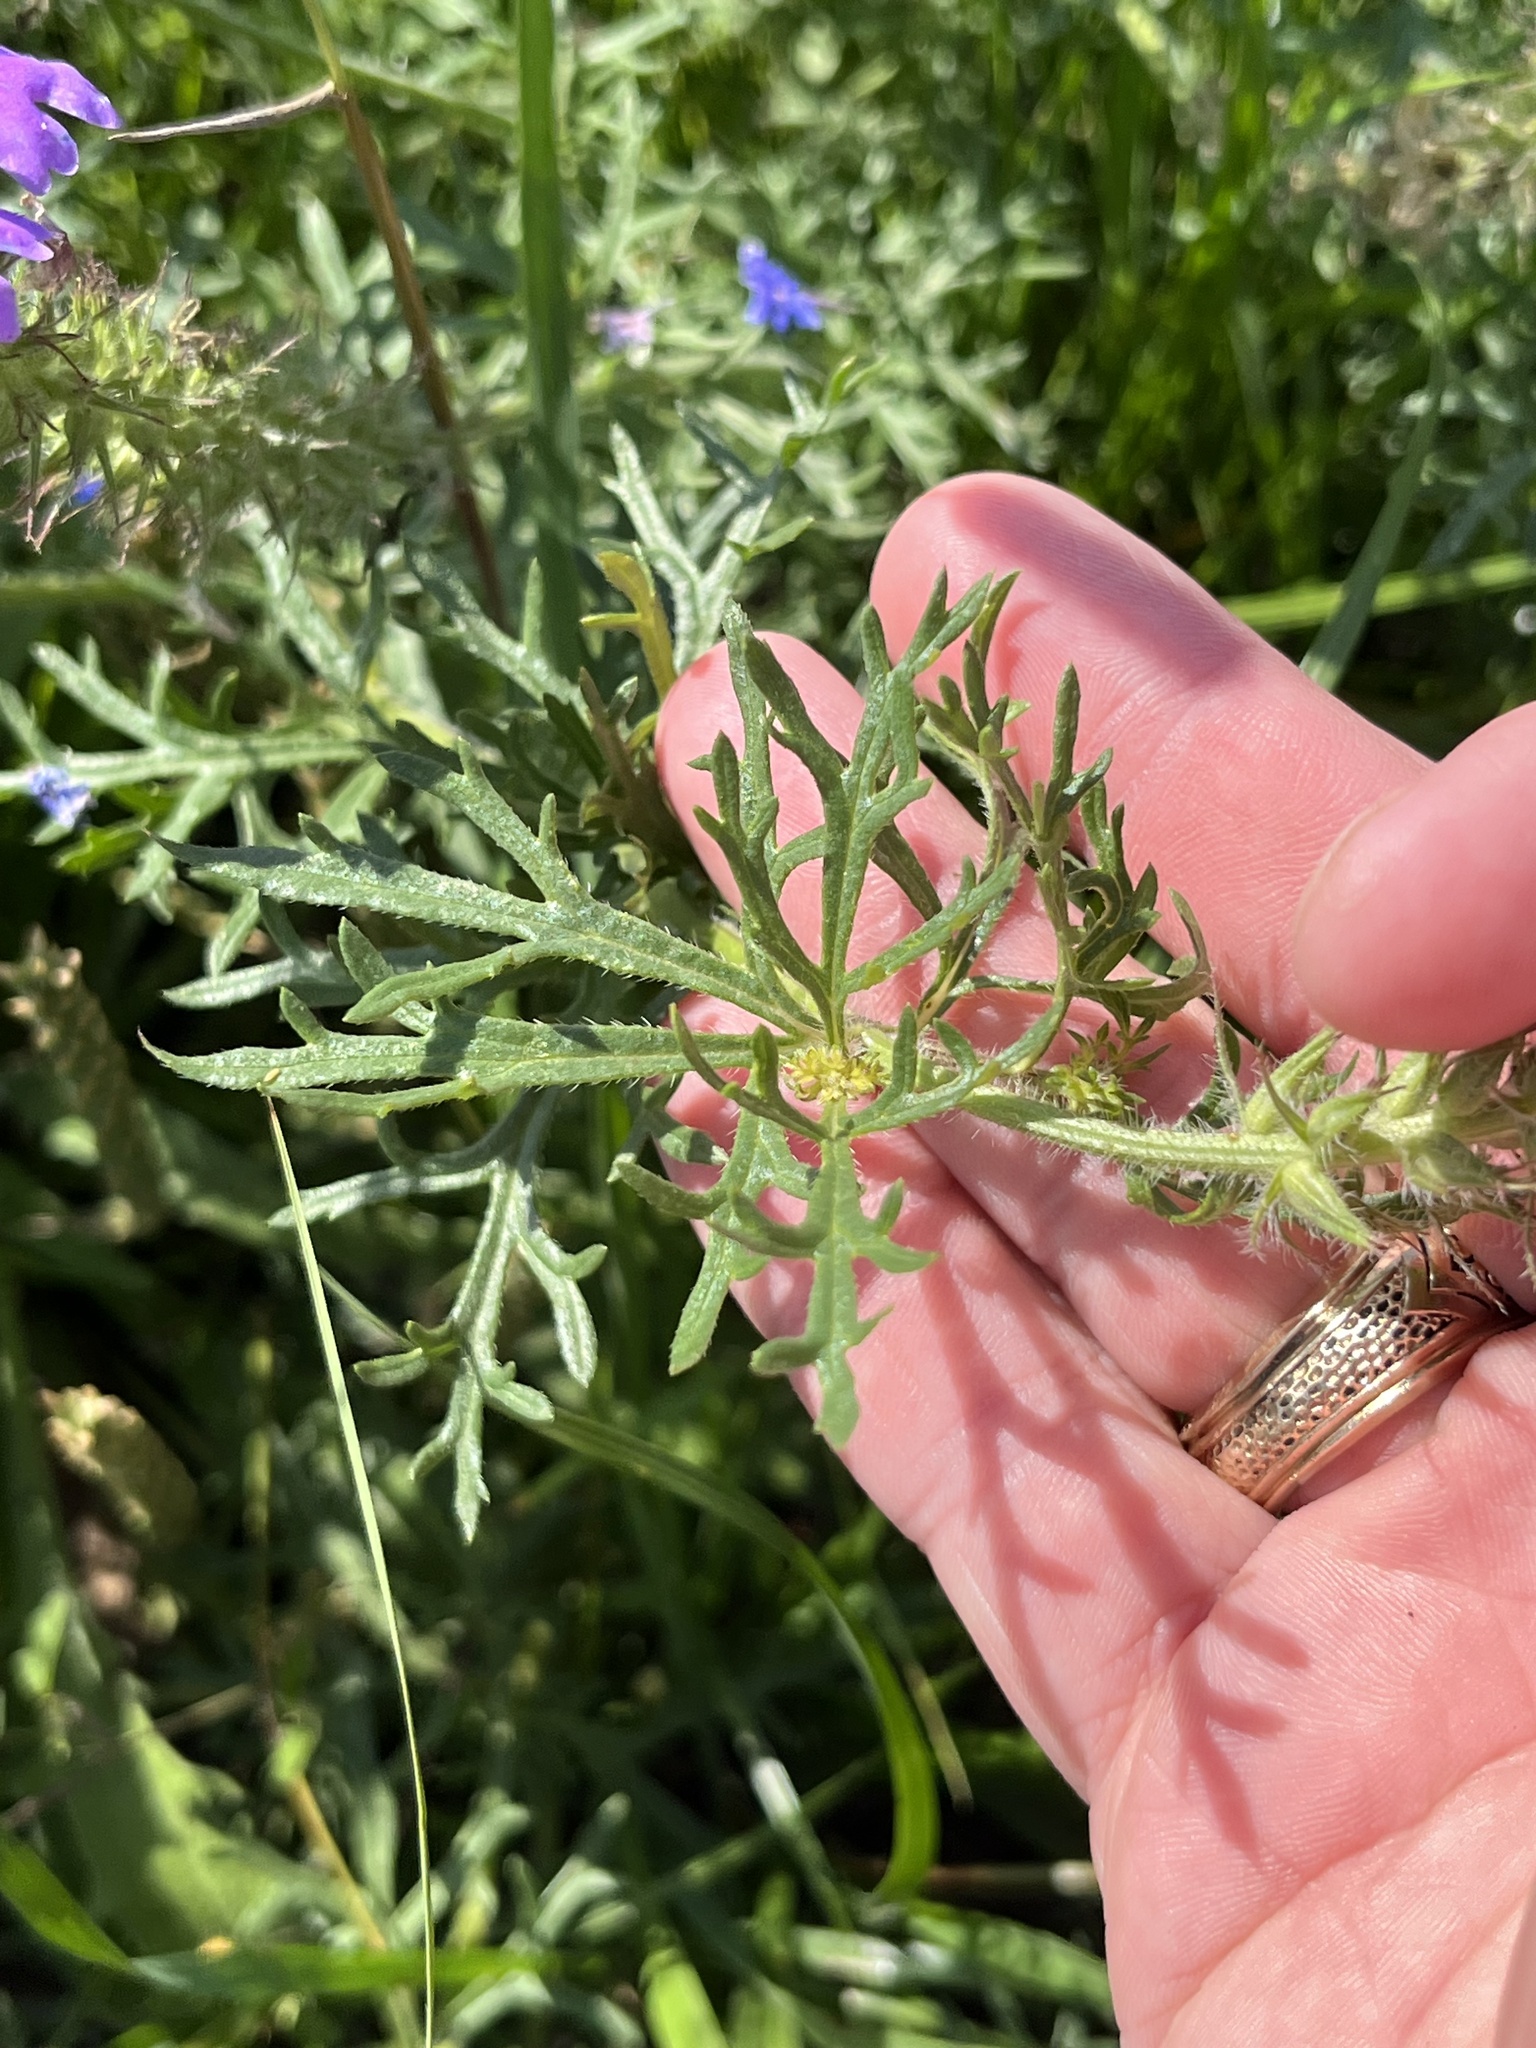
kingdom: Plantae
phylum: Tracheophyta
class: Magnoliopsida
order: Lamiales
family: Verbenaceae
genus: Verbena
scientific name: Verbena bipinnatifida
